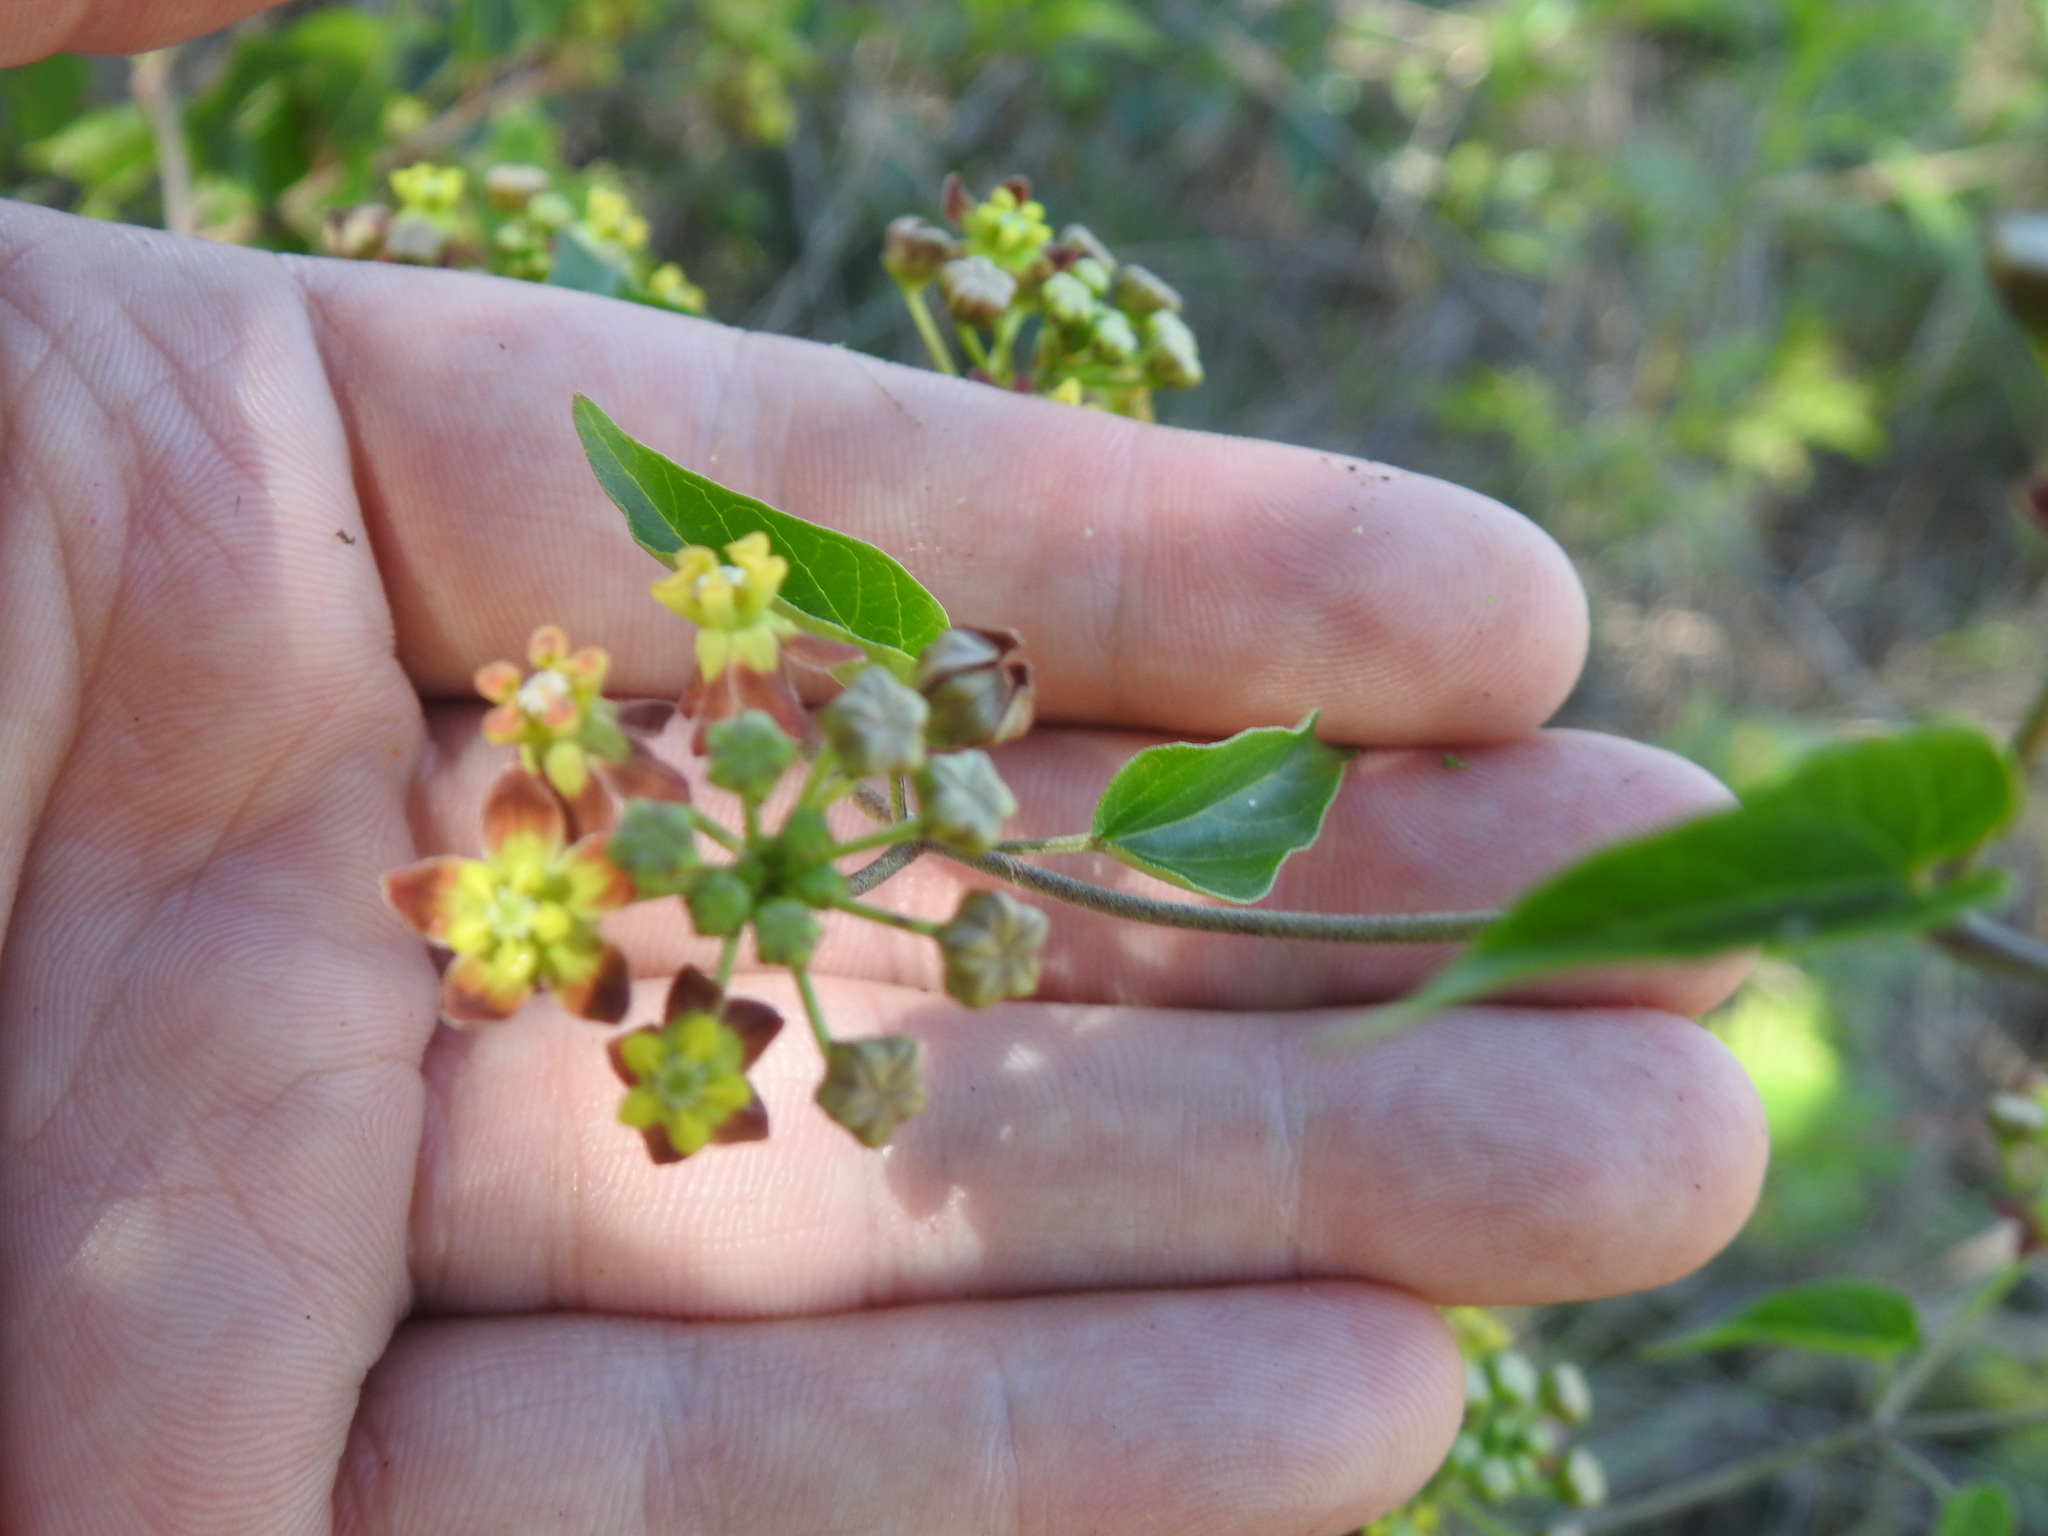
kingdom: Plantae
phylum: Tracheophyta
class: Magnoliopsida
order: Gentianales
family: Apocynaceae
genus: Cynanchum
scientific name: Cynanchum
